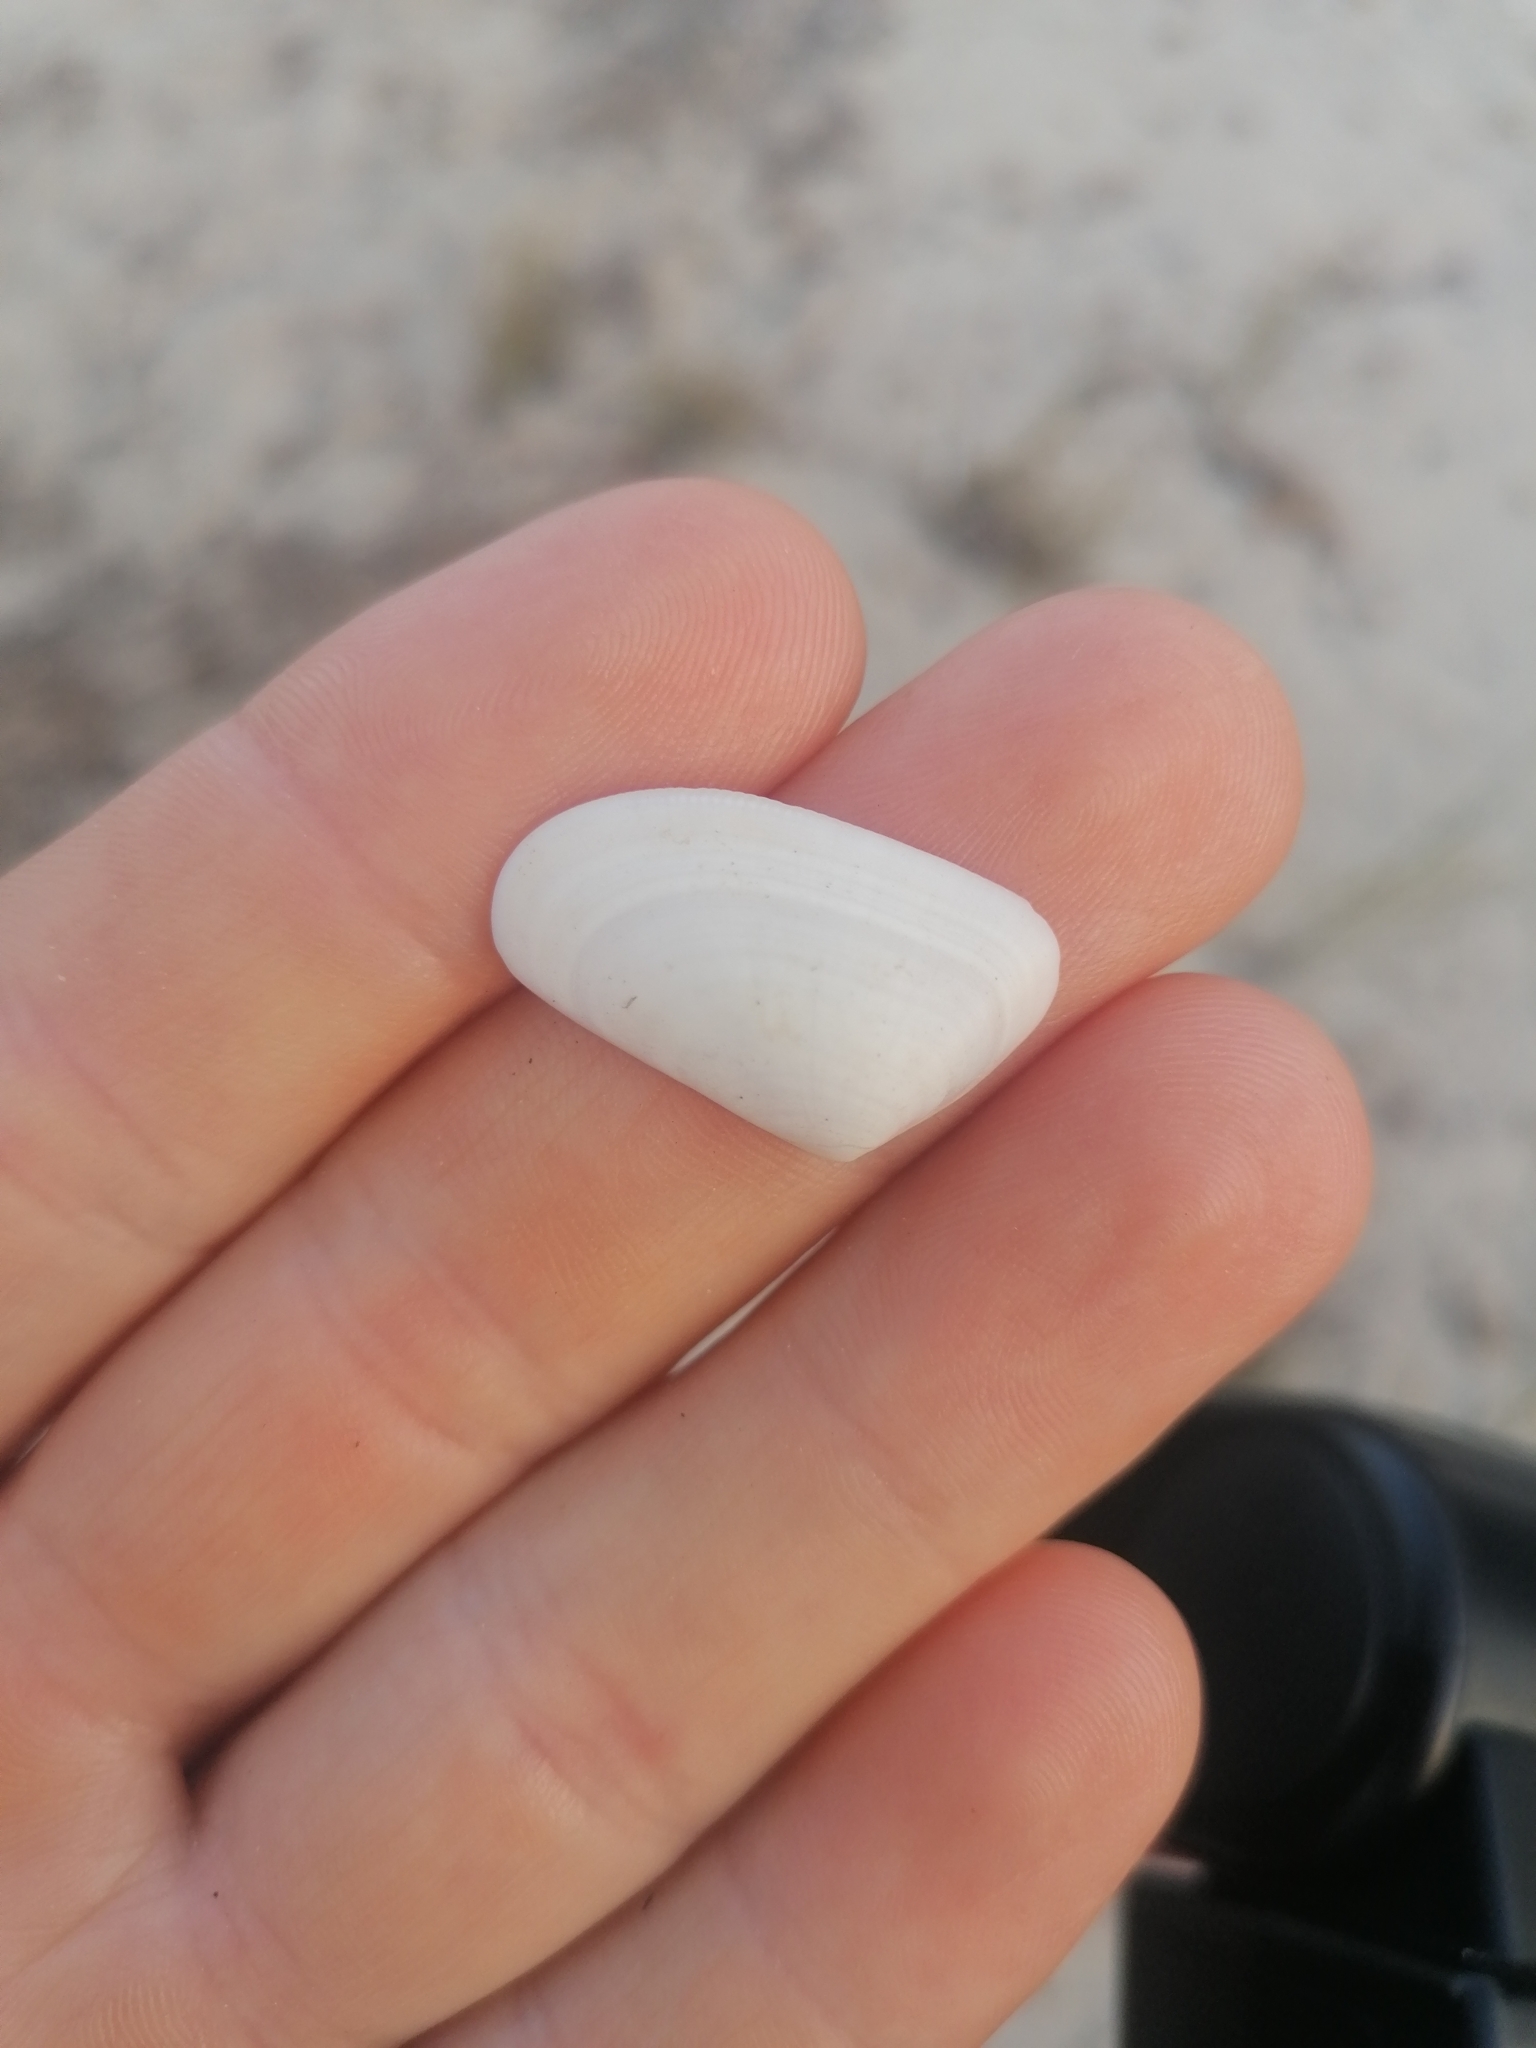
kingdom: Animalia
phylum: Mollusca
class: Bivalvia
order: Cardiida
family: Donacidae
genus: Donax
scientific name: Donax trunculus
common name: Truncate donax
